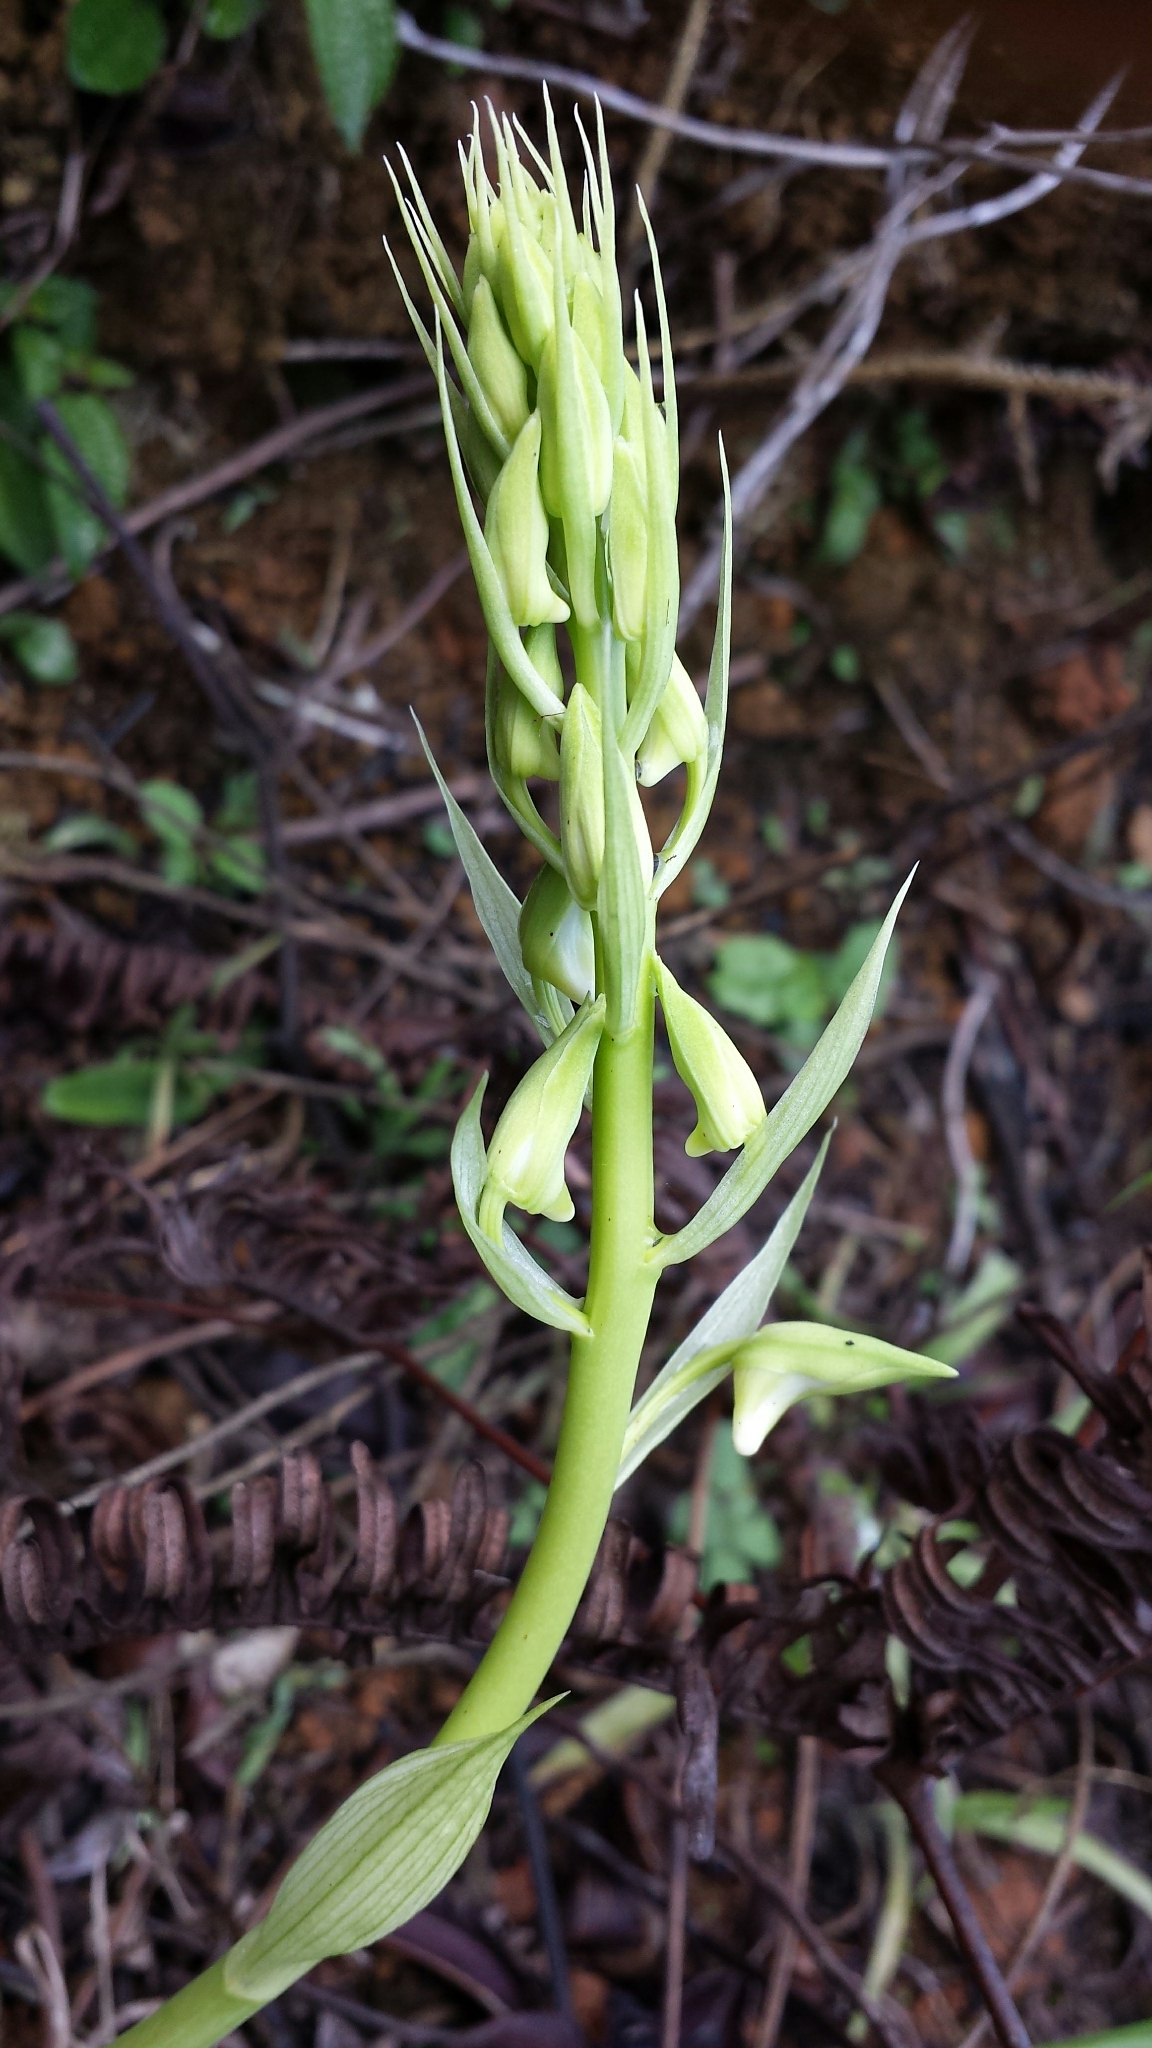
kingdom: Plantae
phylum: Tracheophyta
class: Liliopsida
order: Asparagales
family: Orchidaceae
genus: Eulophia
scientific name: Eulophia plantaginea
